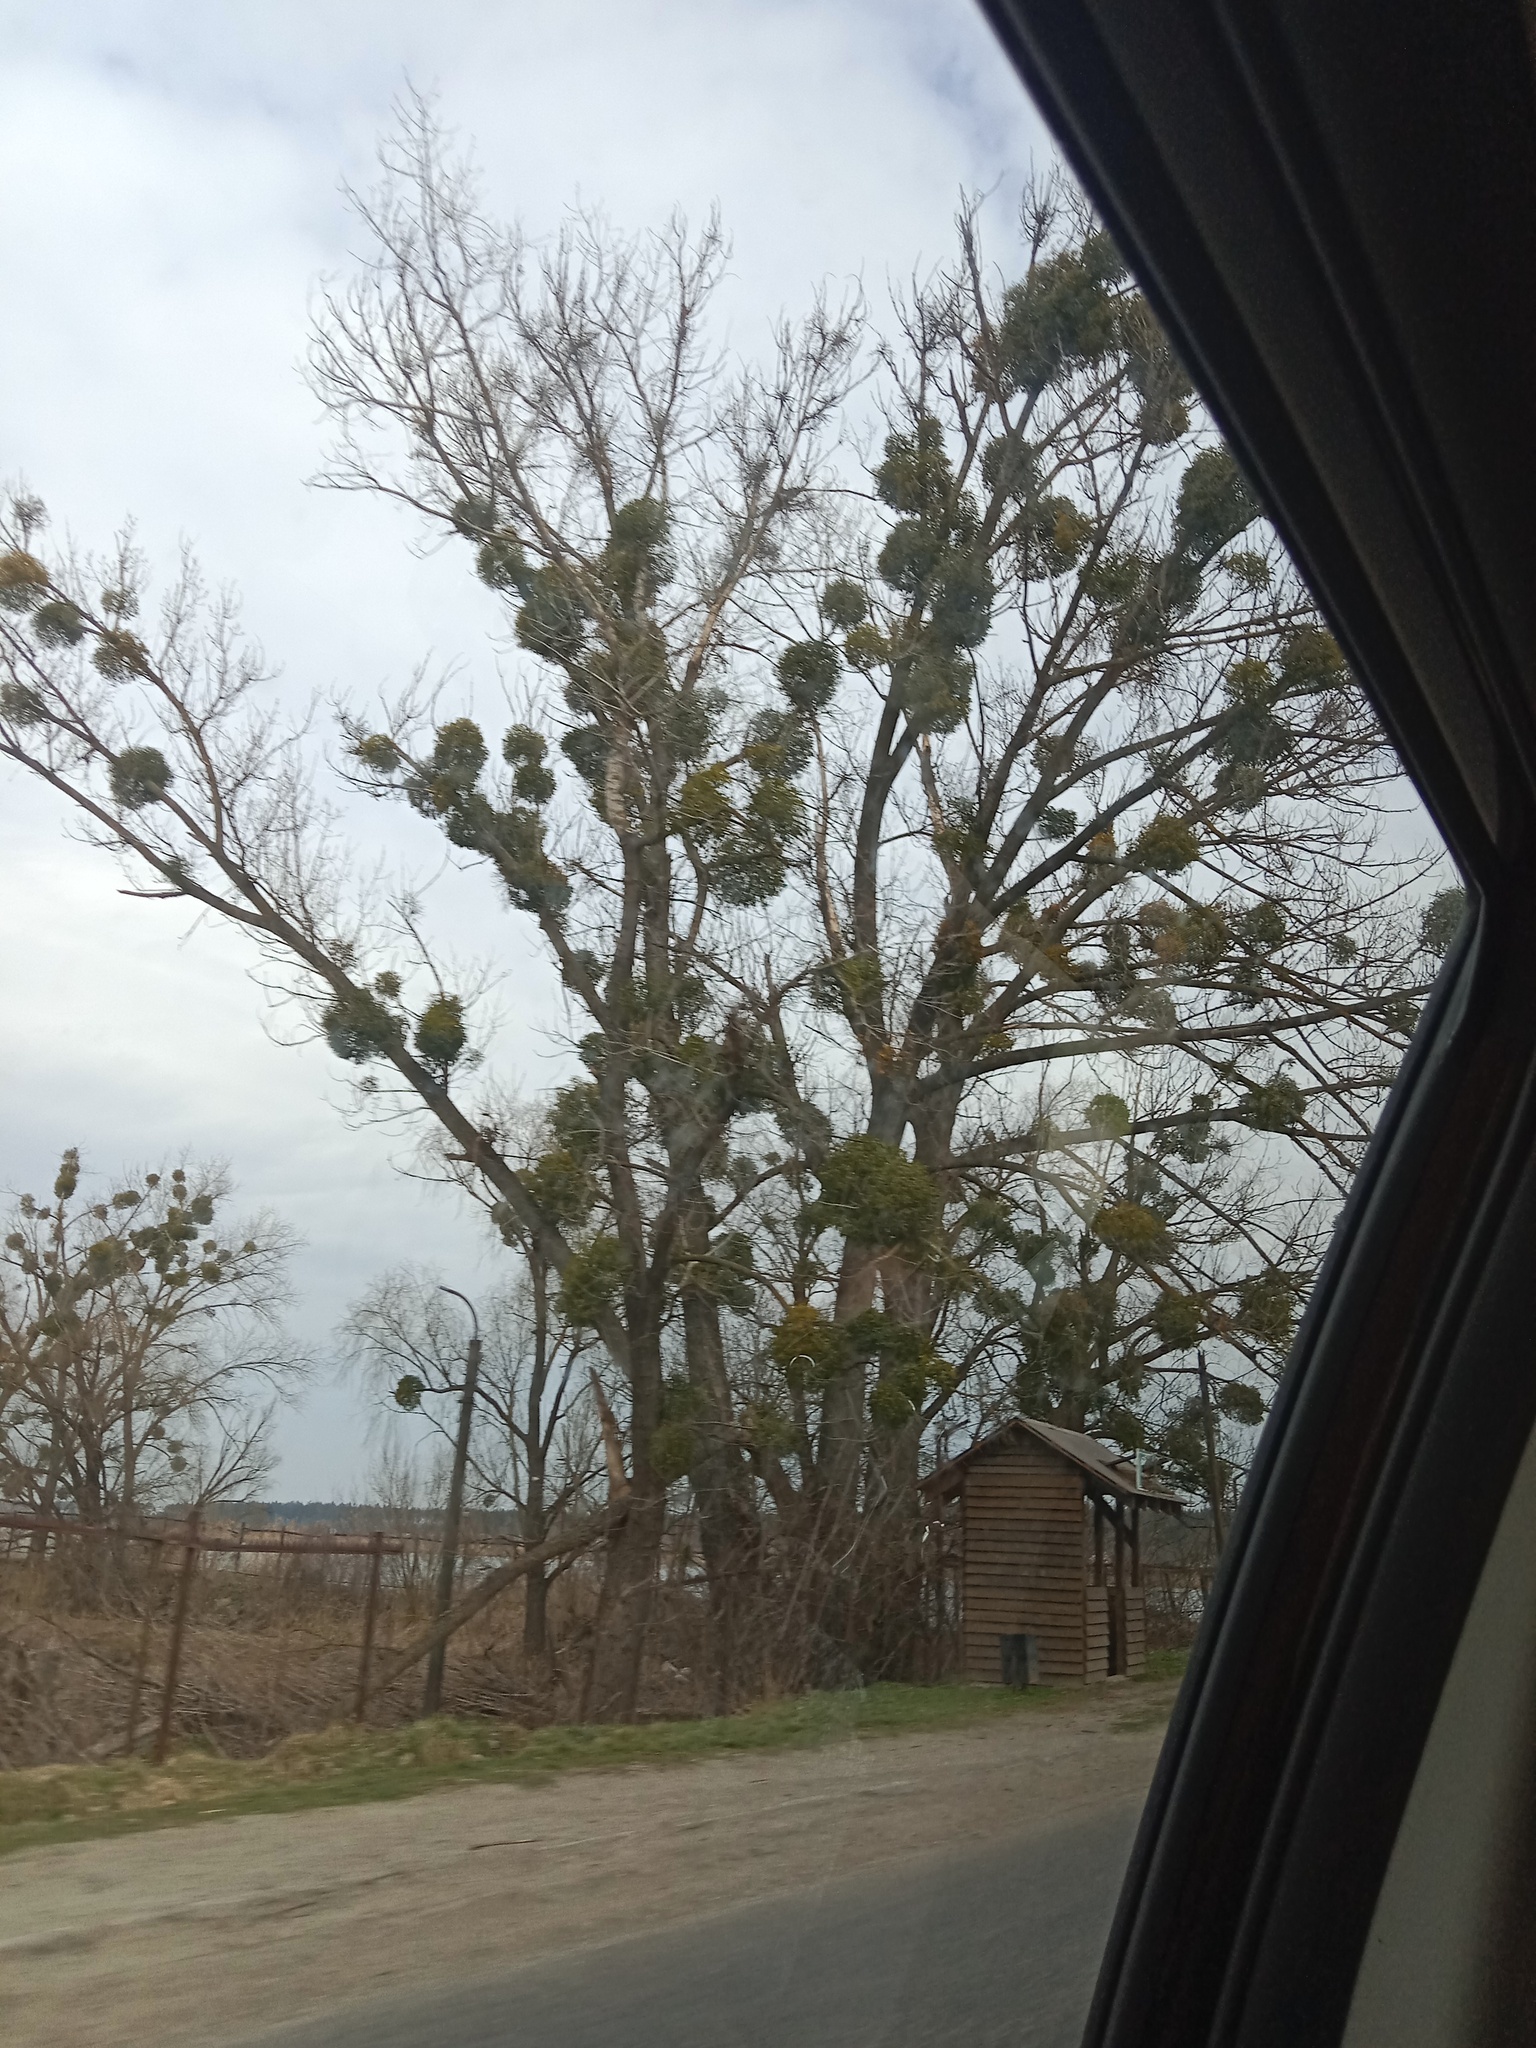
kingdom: Plantae
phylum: Tracheophyta
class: Magnoliopsida
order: Santalales
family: Viscaceae
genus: Viscum
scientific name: Viscum album
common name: Mistletoe
